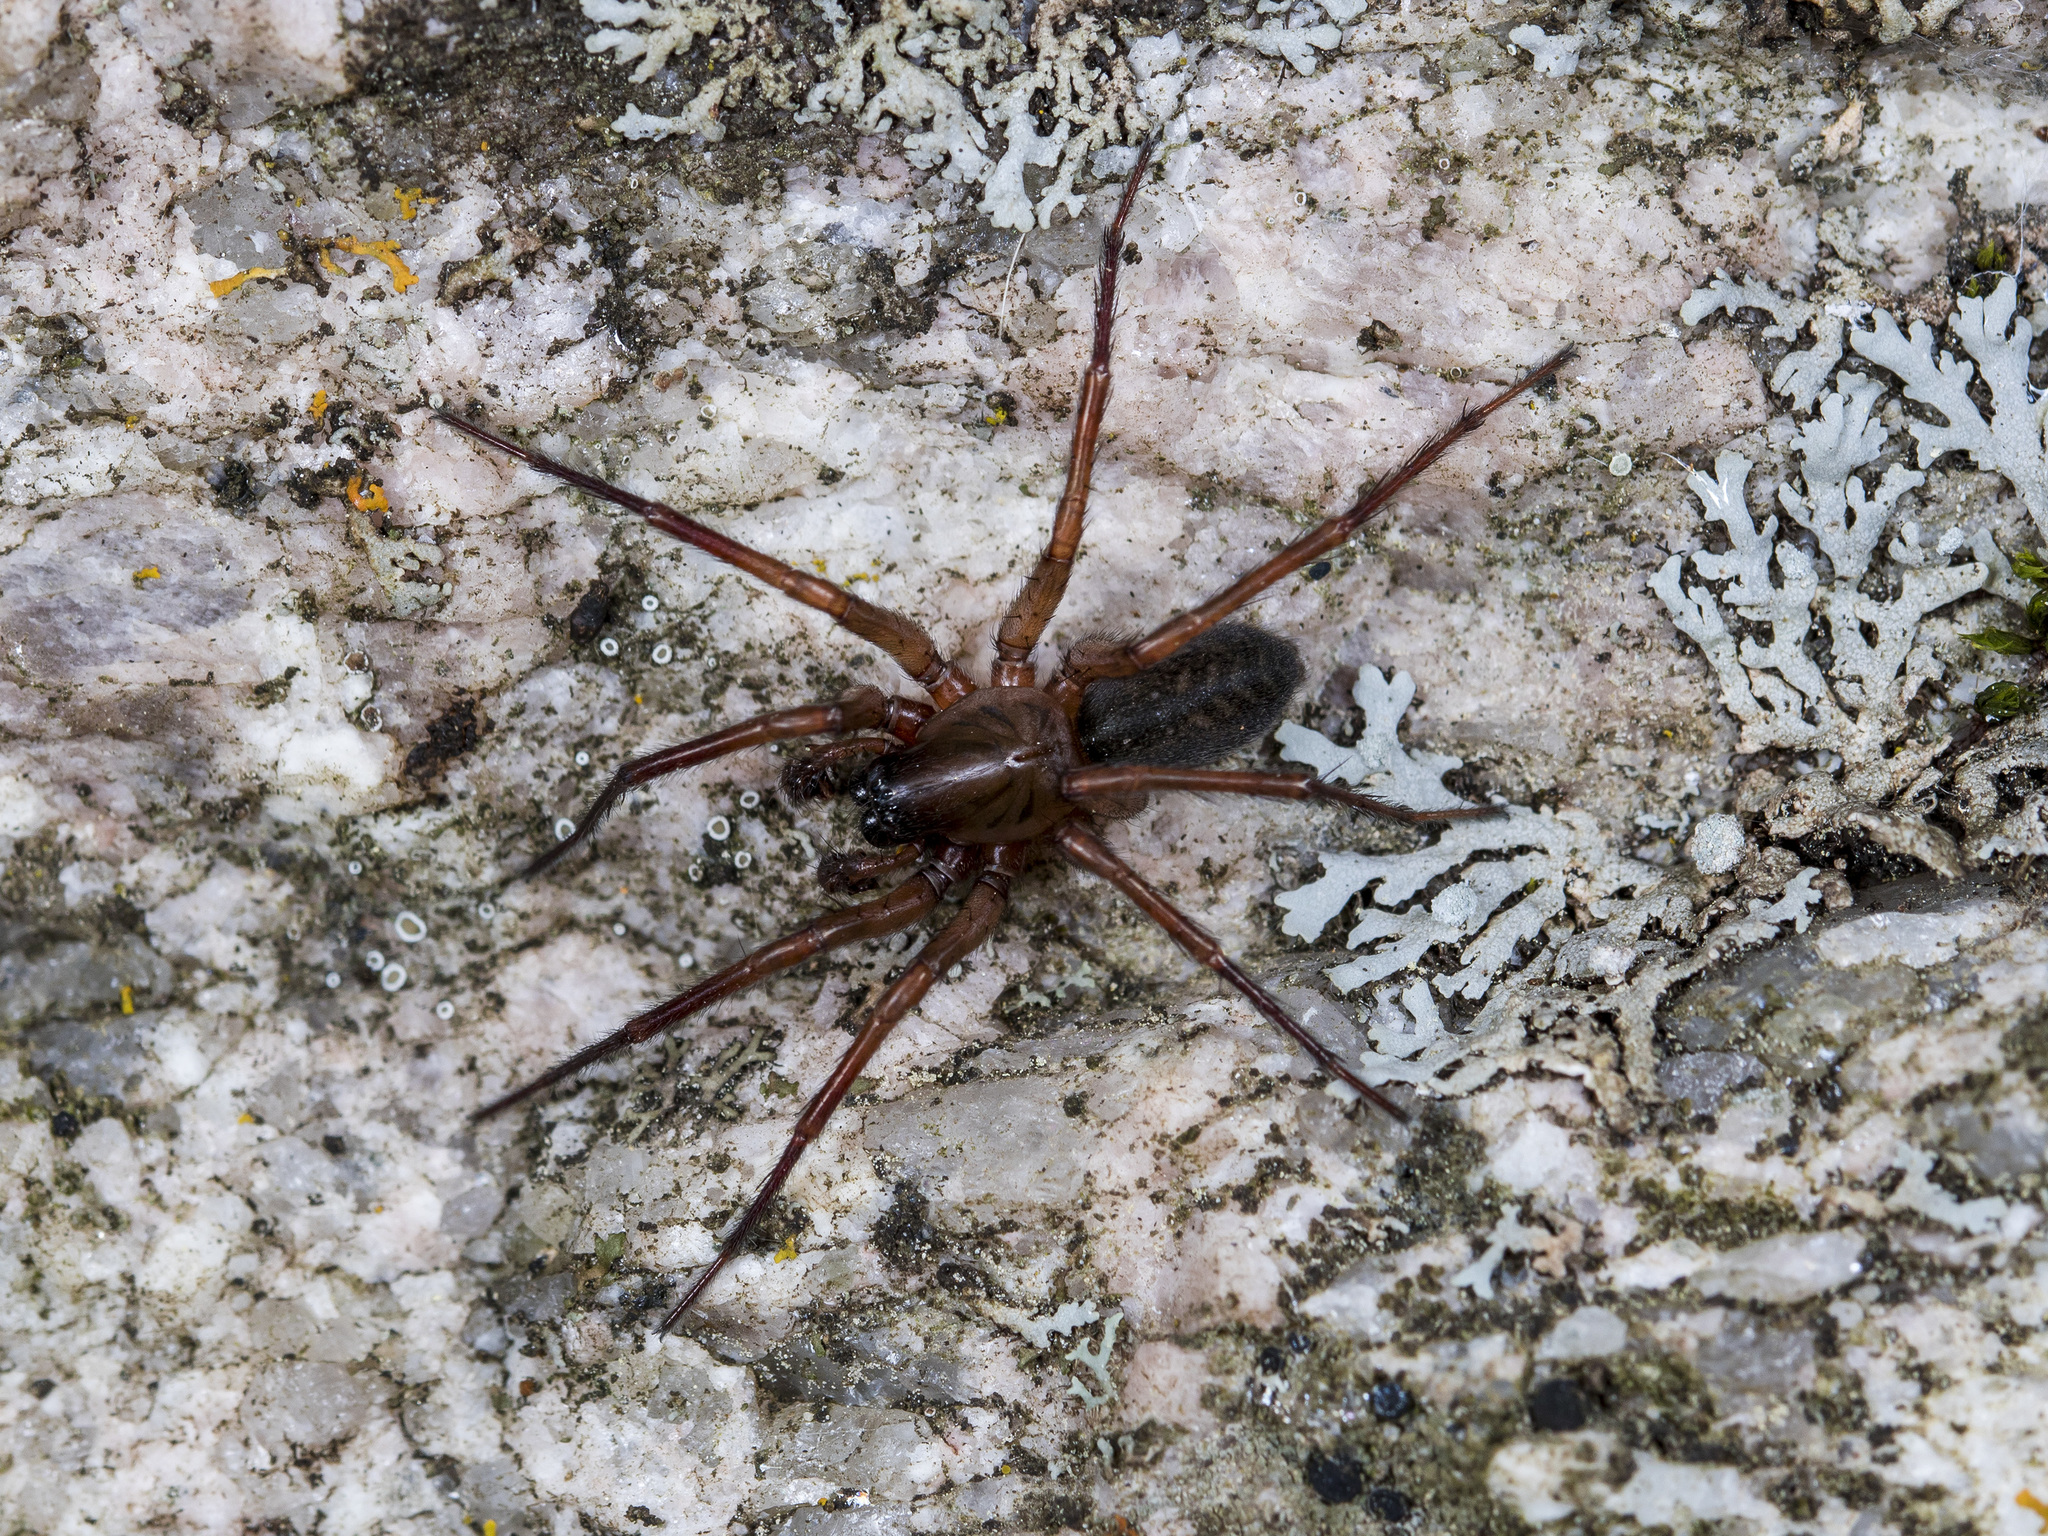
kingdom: Animalia
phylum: Arthropoda
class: Arachnida
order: Araneae
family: Agelenidae
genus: Coelotes
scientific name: Coelotes transiliensis
